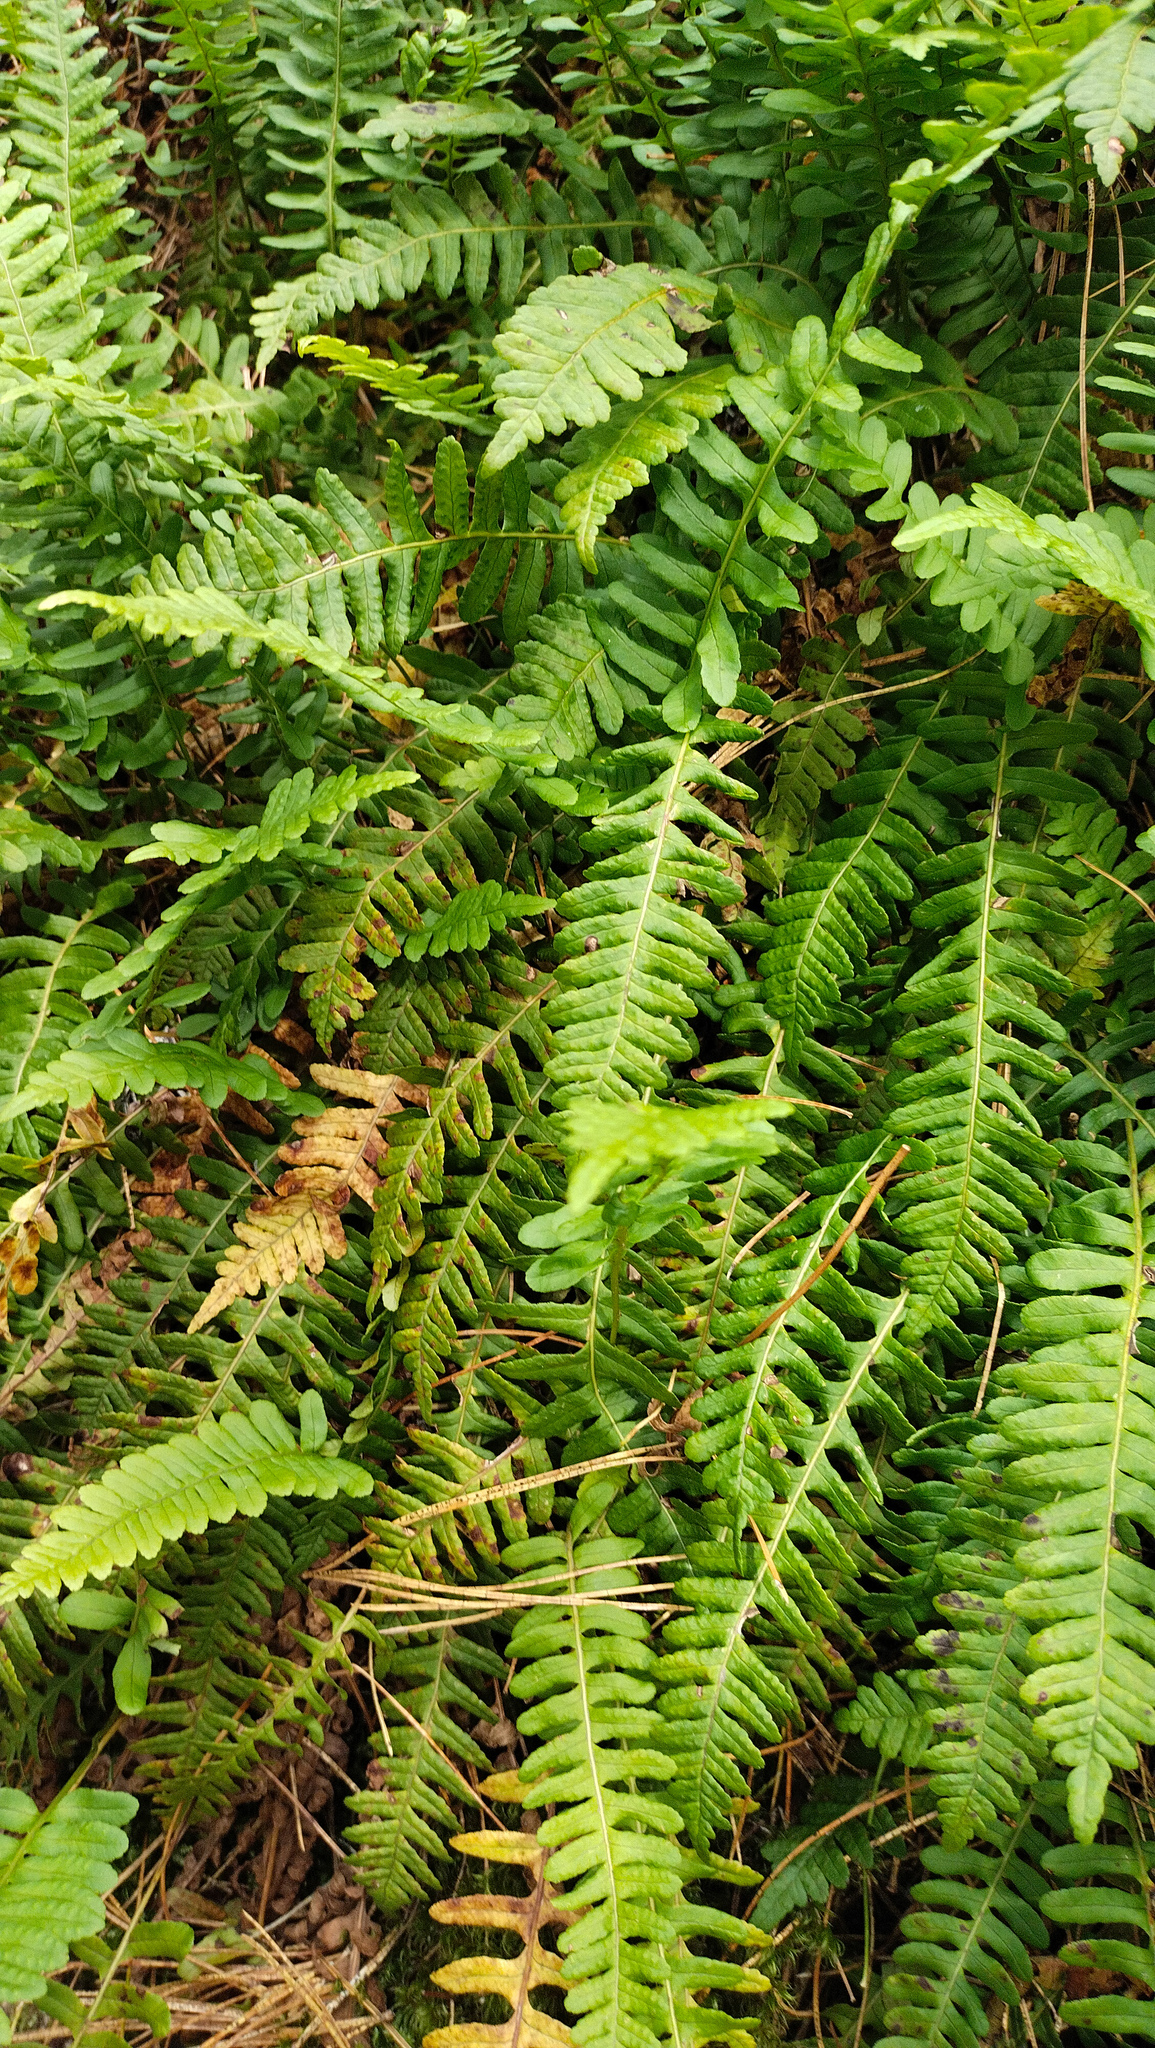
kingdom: Plantae
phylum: Tracheophyta
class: Polypodiopsida
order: Polypodiales
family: Polypodiaceae
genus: Polypodium
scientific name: Polypodium sibiricum
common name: Siberian polypody
